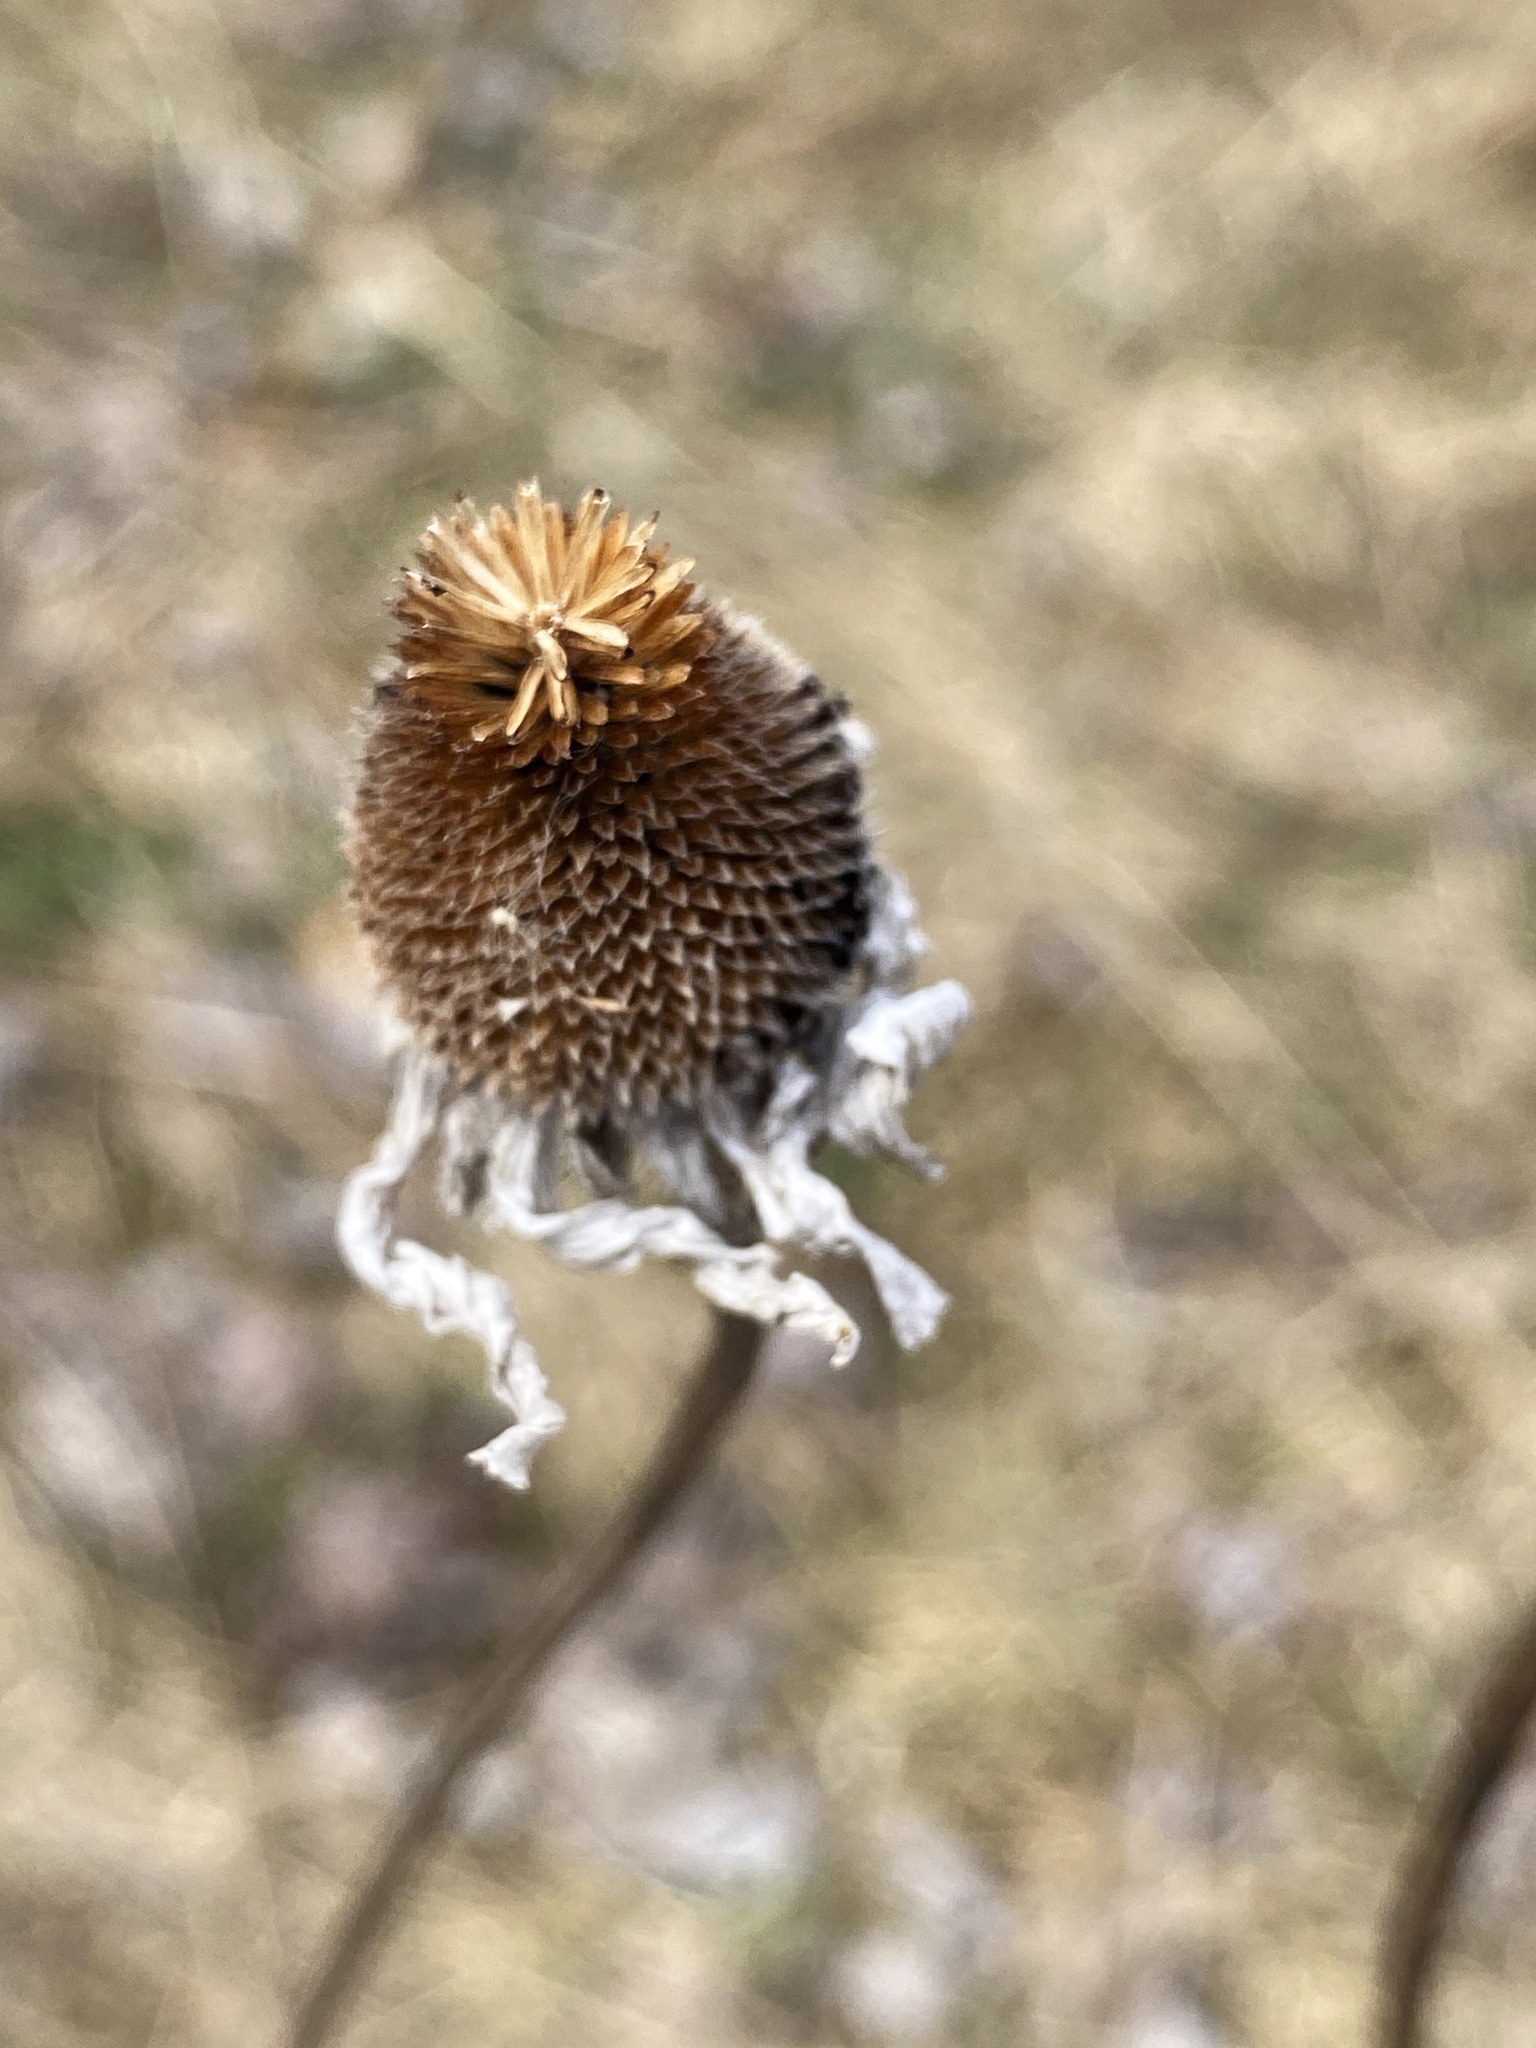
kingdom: Plantae
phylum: Tracheophyta
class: Magnoliopsida
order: Asterales
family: Asteraceae
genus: Rudbeckia
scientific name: Rudbeckia hirta
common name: Black-eyed-susan
